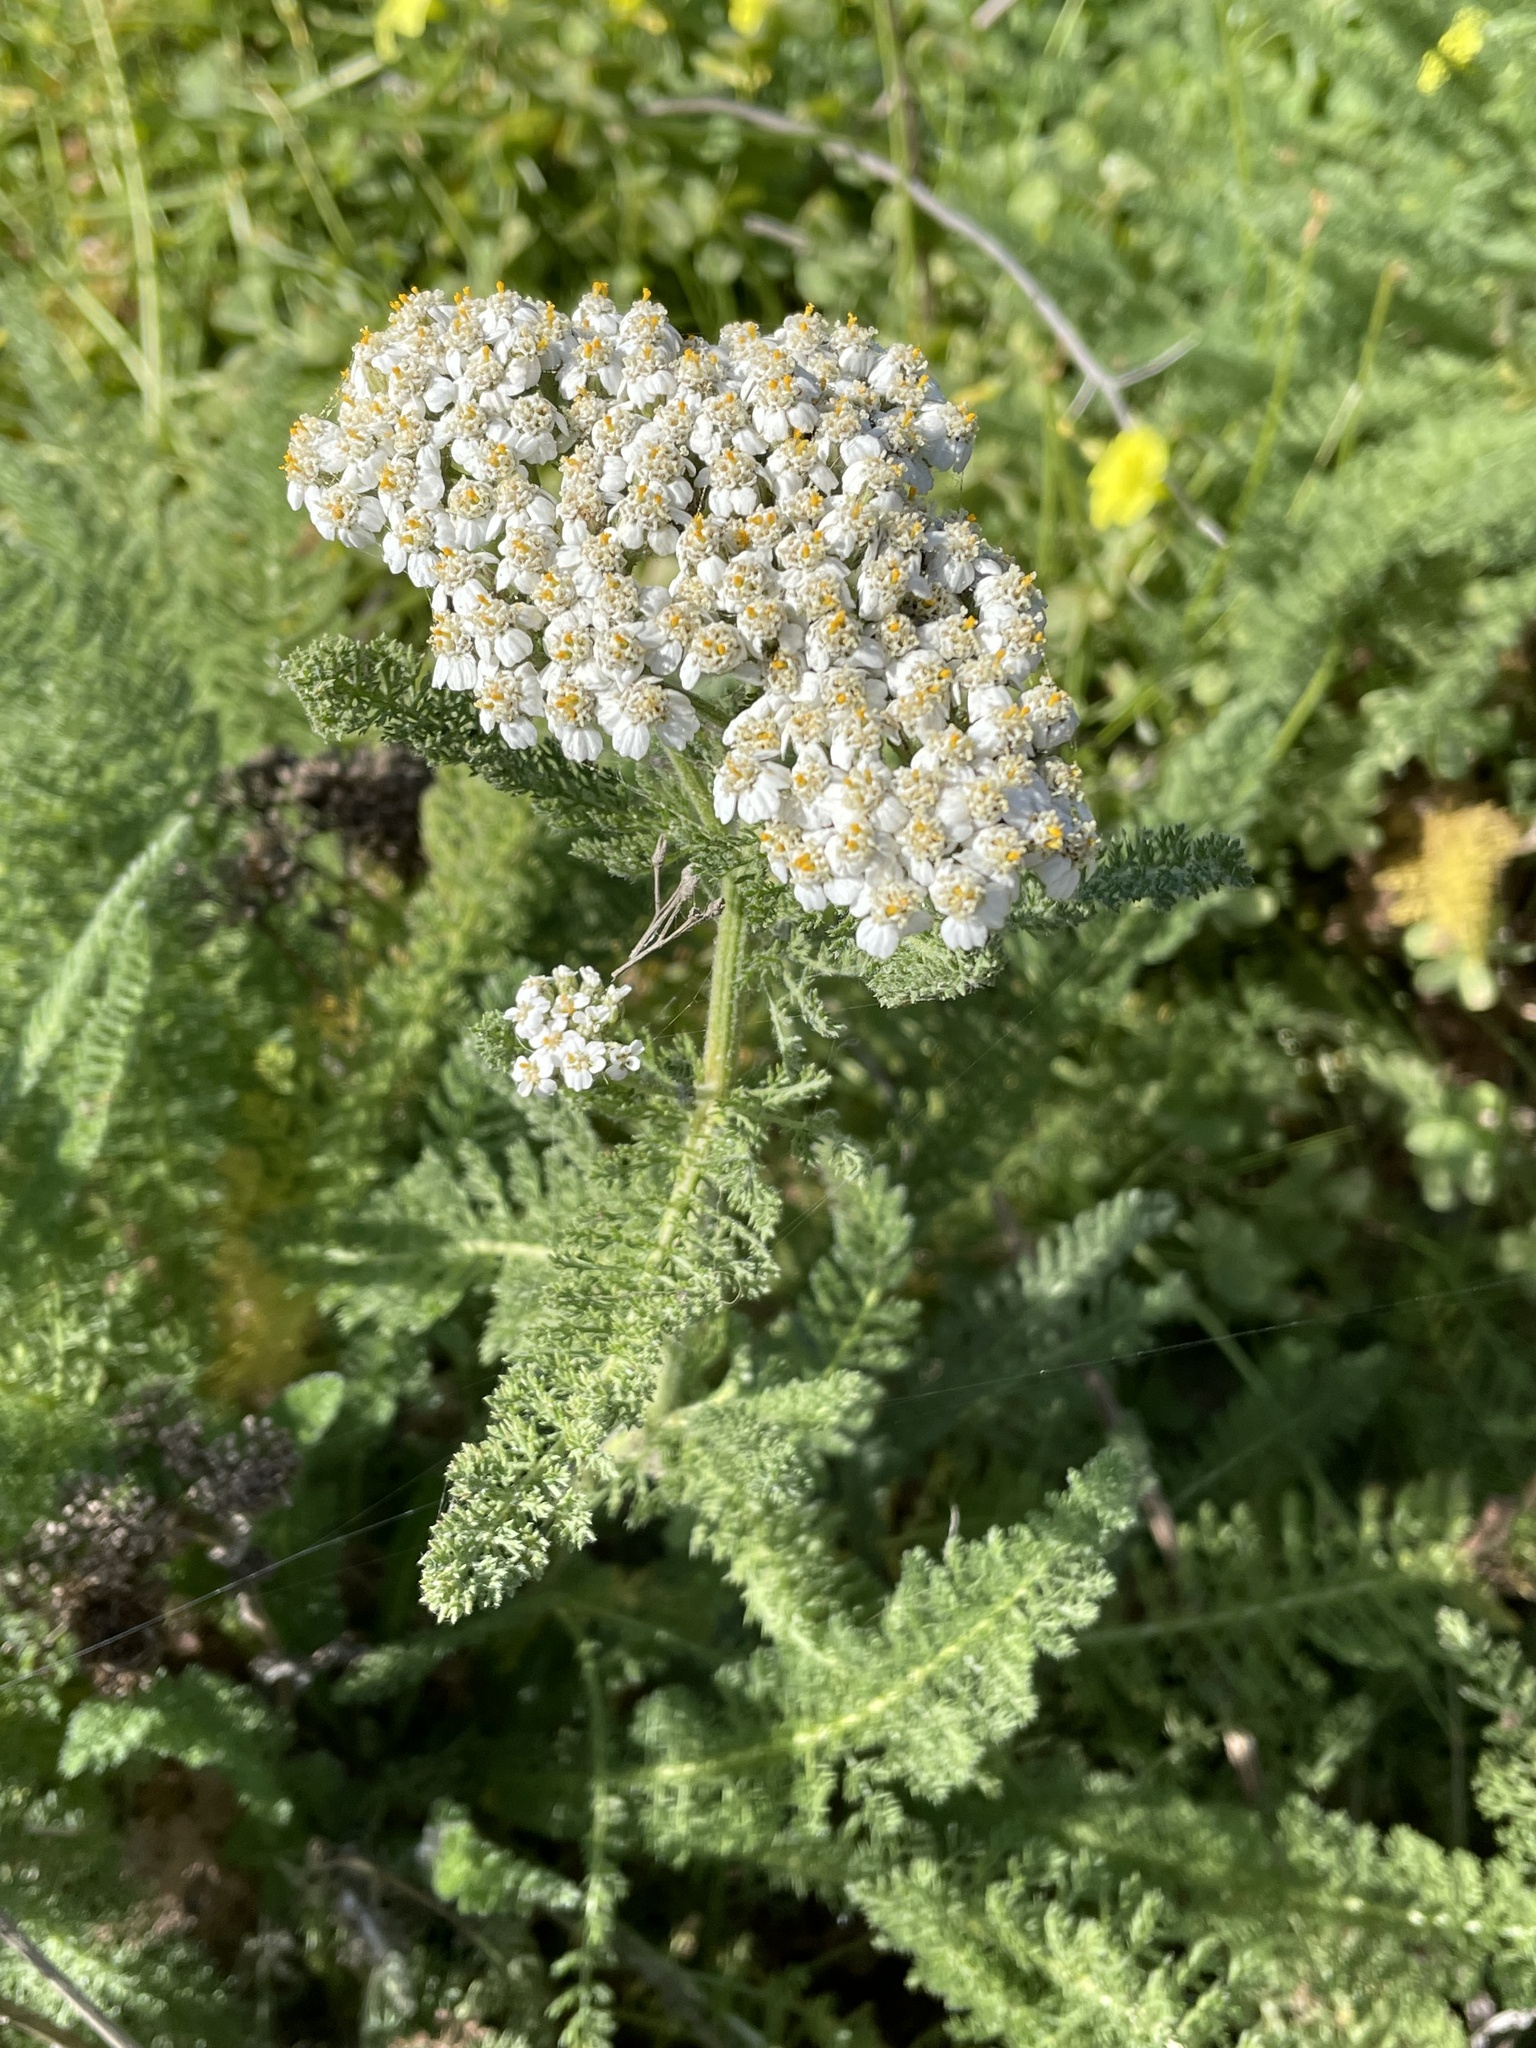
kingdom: Plantae
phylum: Tracheophyta
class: Magnoliopsida
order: Asterales
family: Asteraceae
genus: Achillea
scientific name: Achillea millefolium
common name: Yarrow
